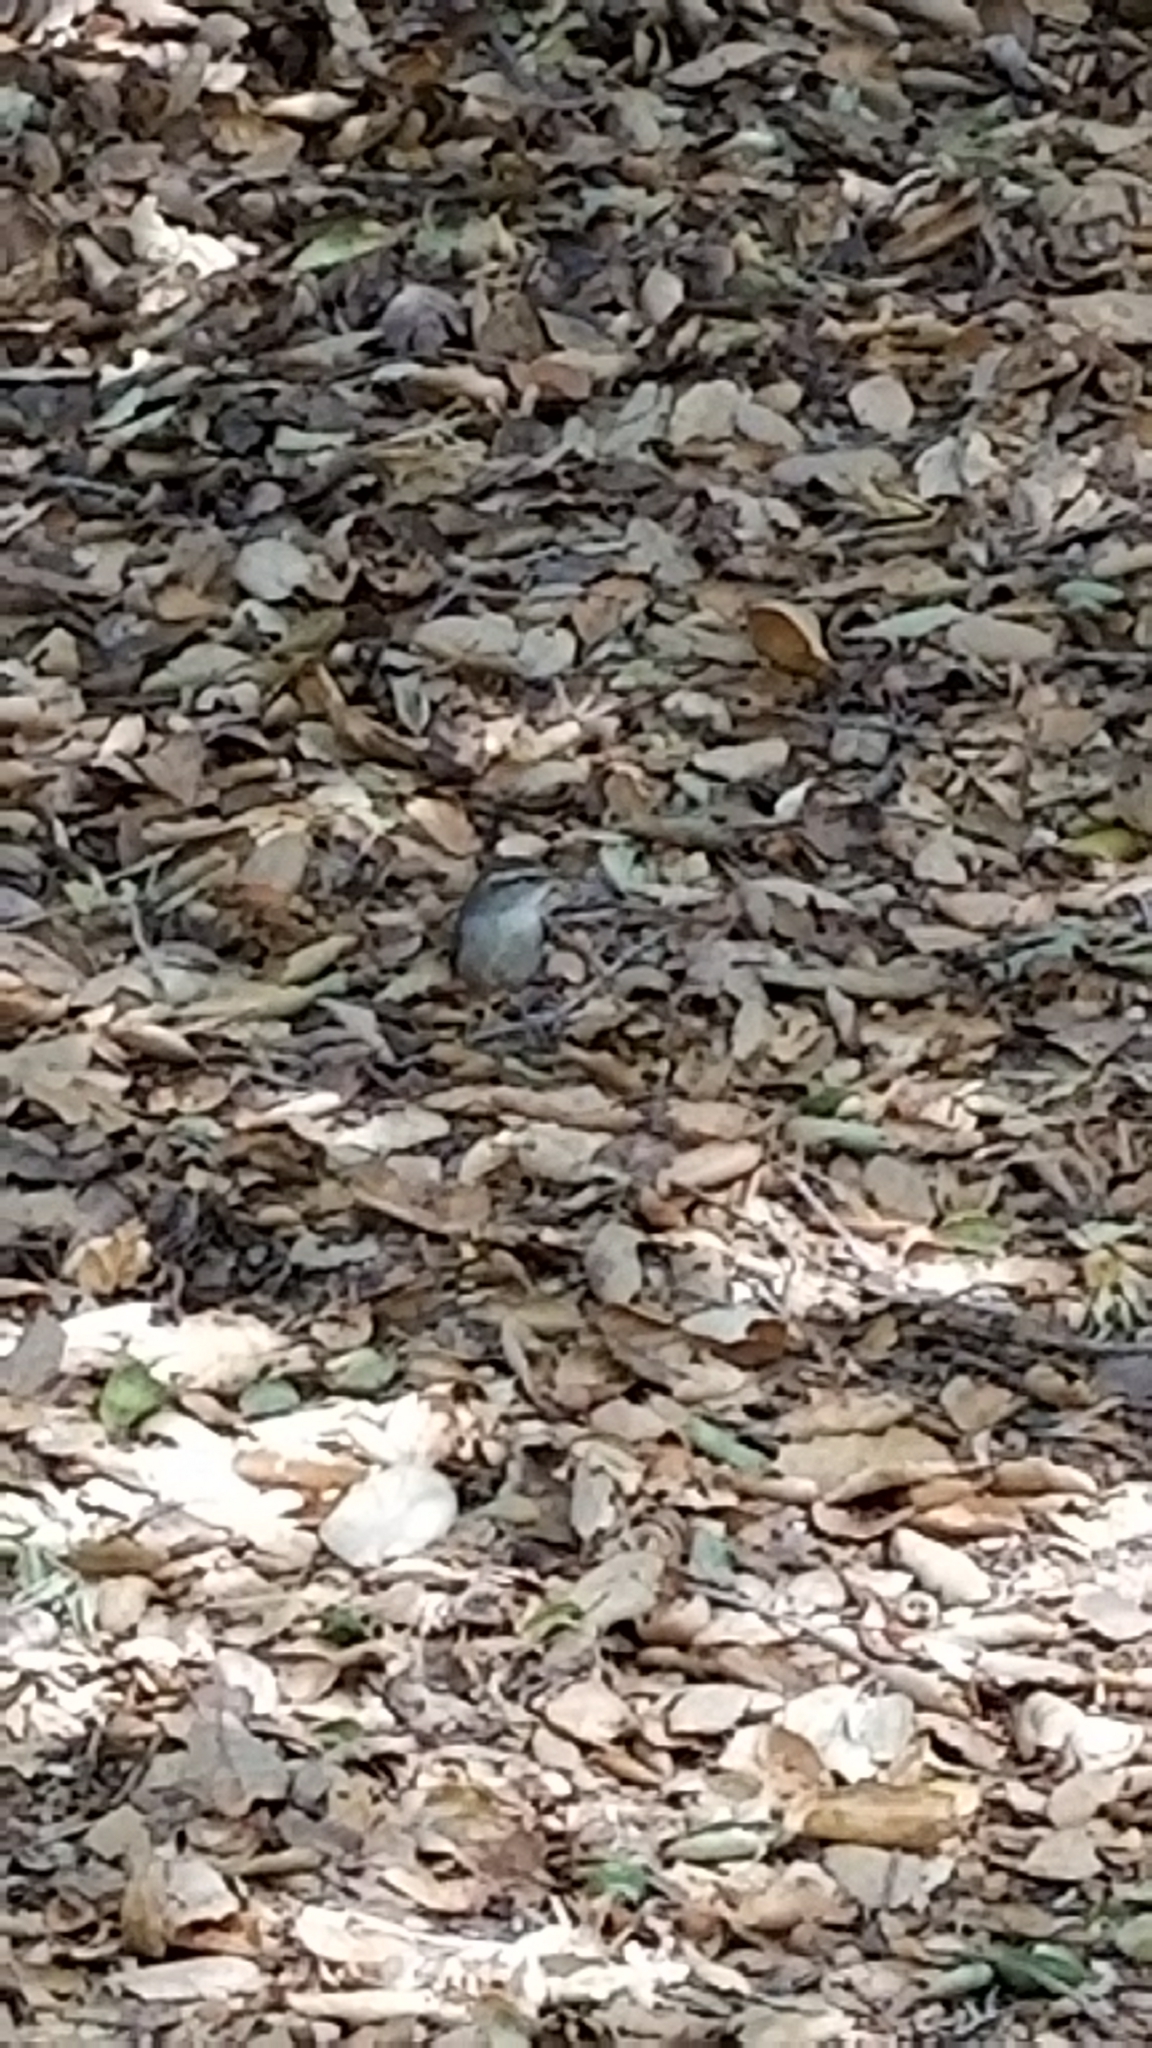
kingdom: Animalia
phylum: Chordata
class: Aves
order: Passeriformes
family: Troglodytidae
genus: Thryomanes
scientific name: Thryomanes bewickii
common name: Bewick's wren
